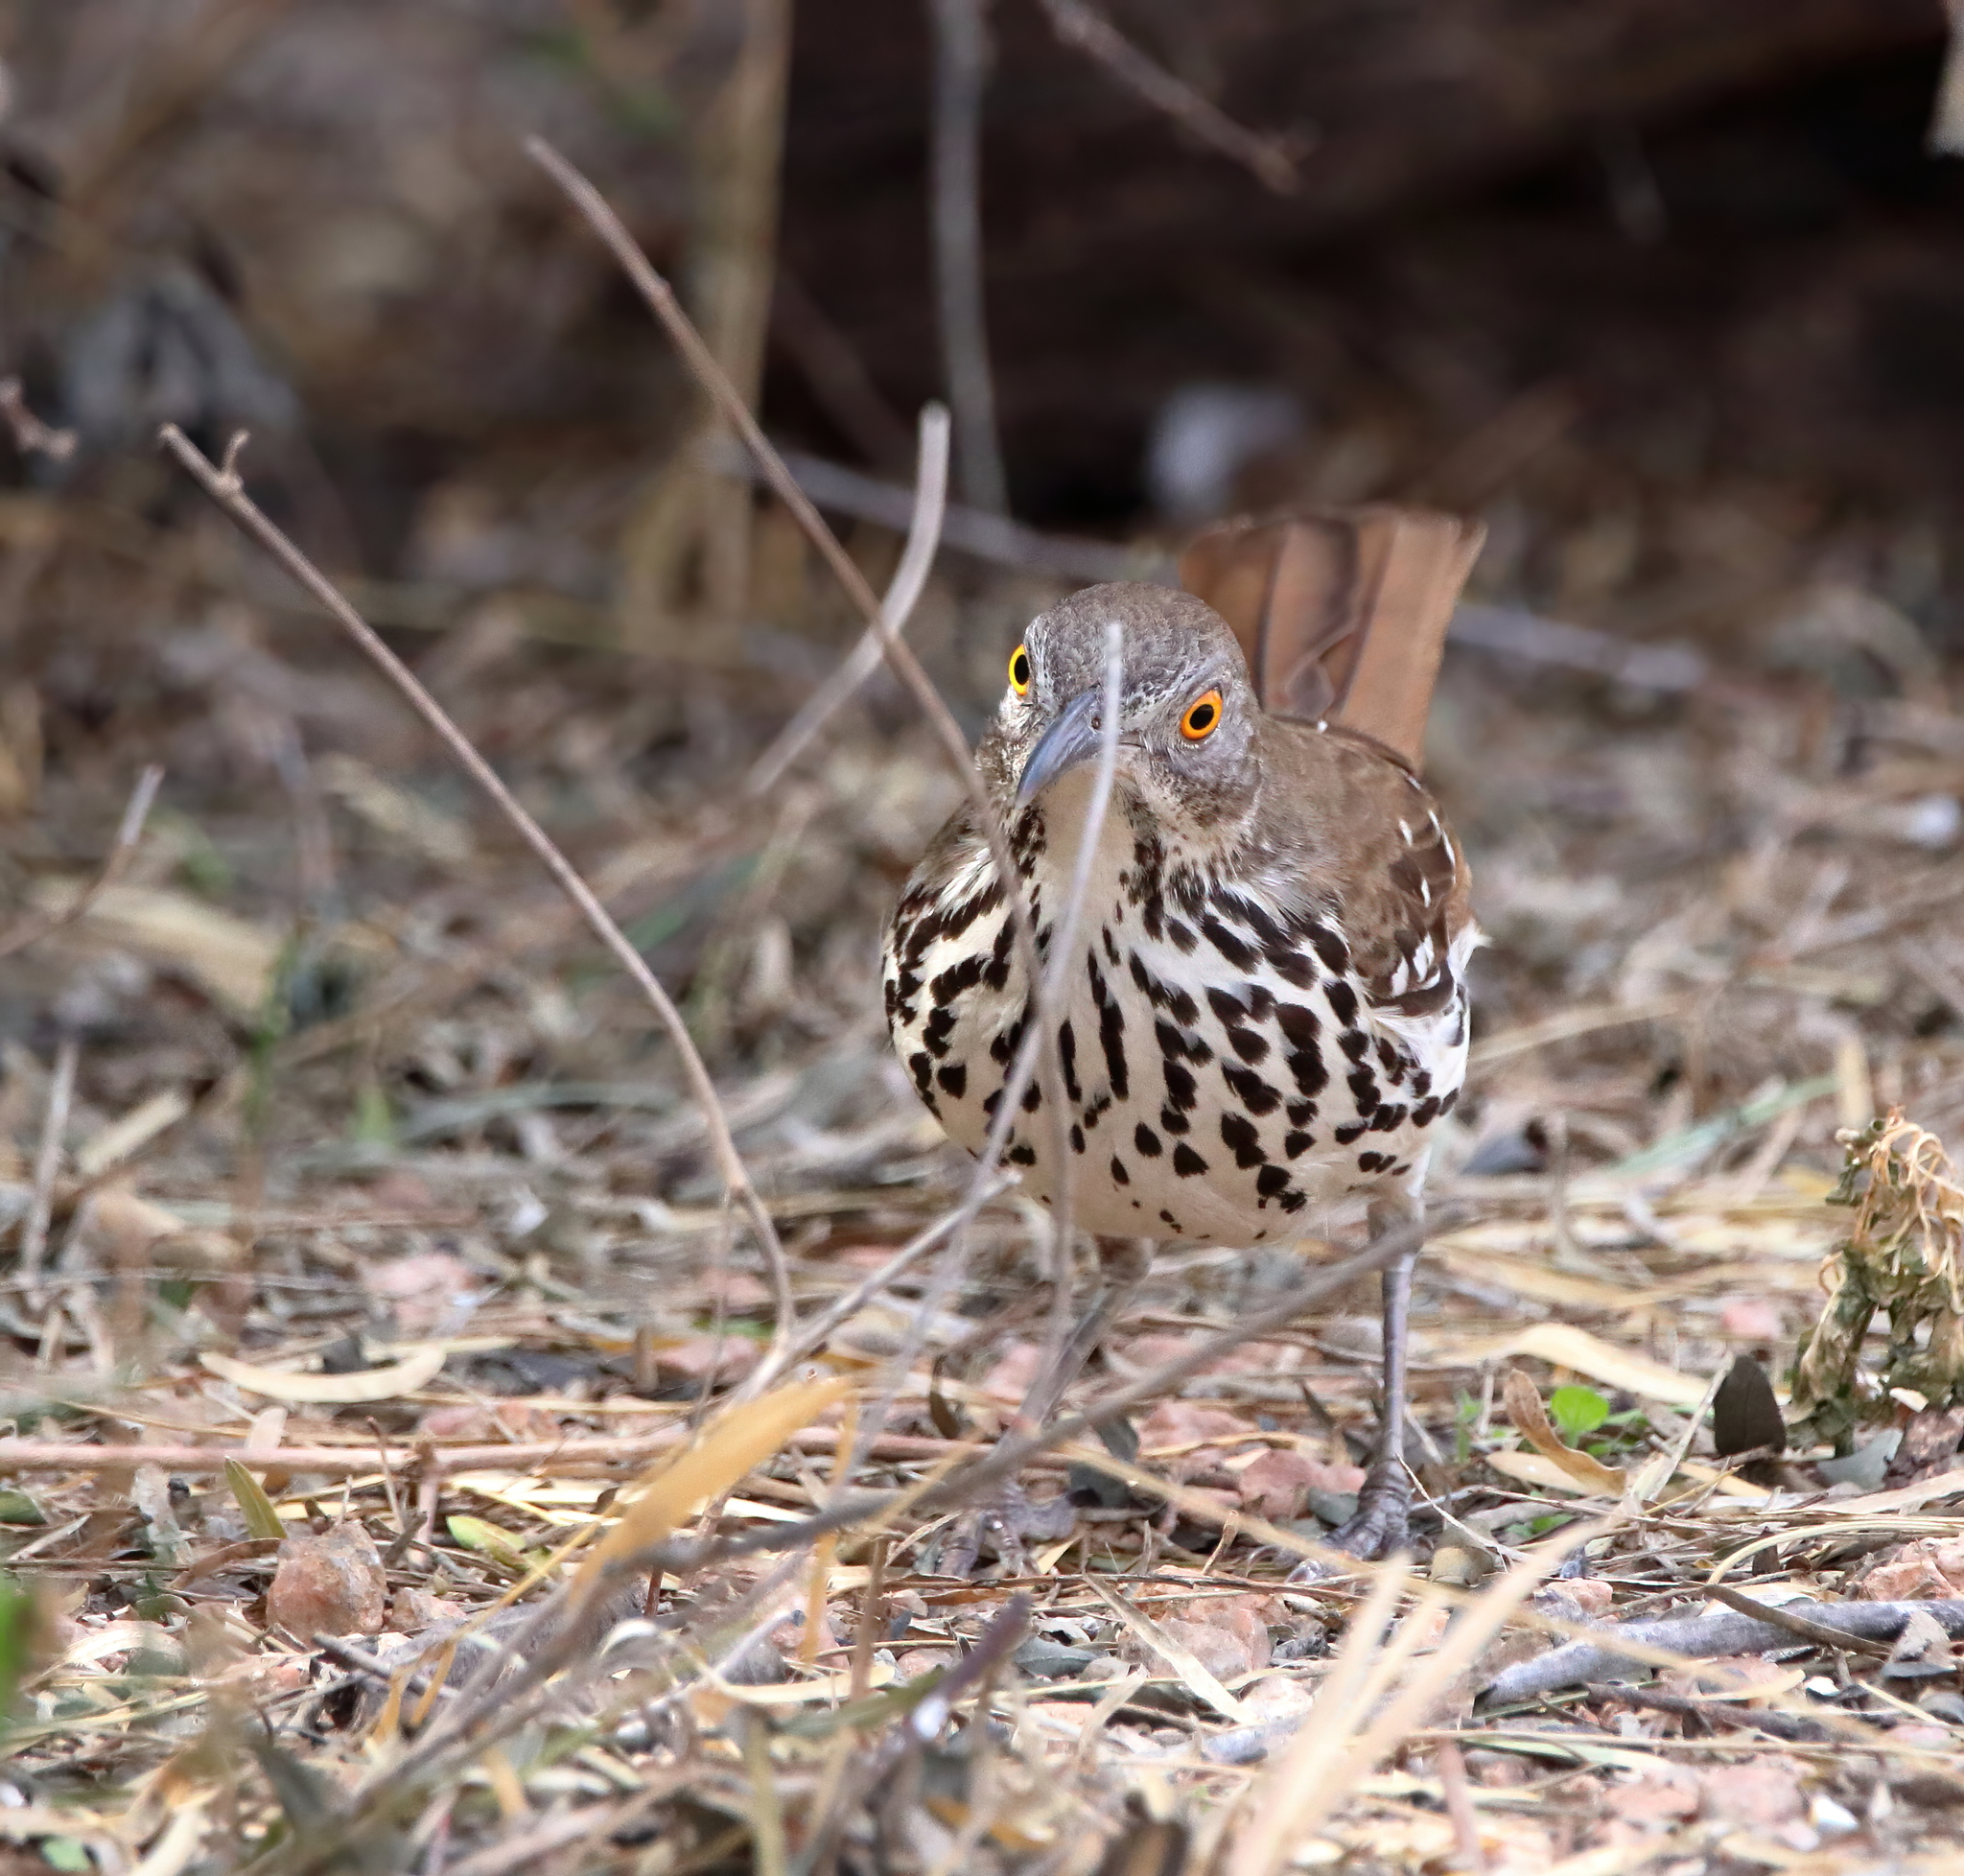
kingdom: Animalia
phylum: Chordata
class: Aves
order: Passeriformes
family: Mimidae
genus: Toxostoma
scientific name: Toxostoma longirostre
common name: Long-billed thrasher
